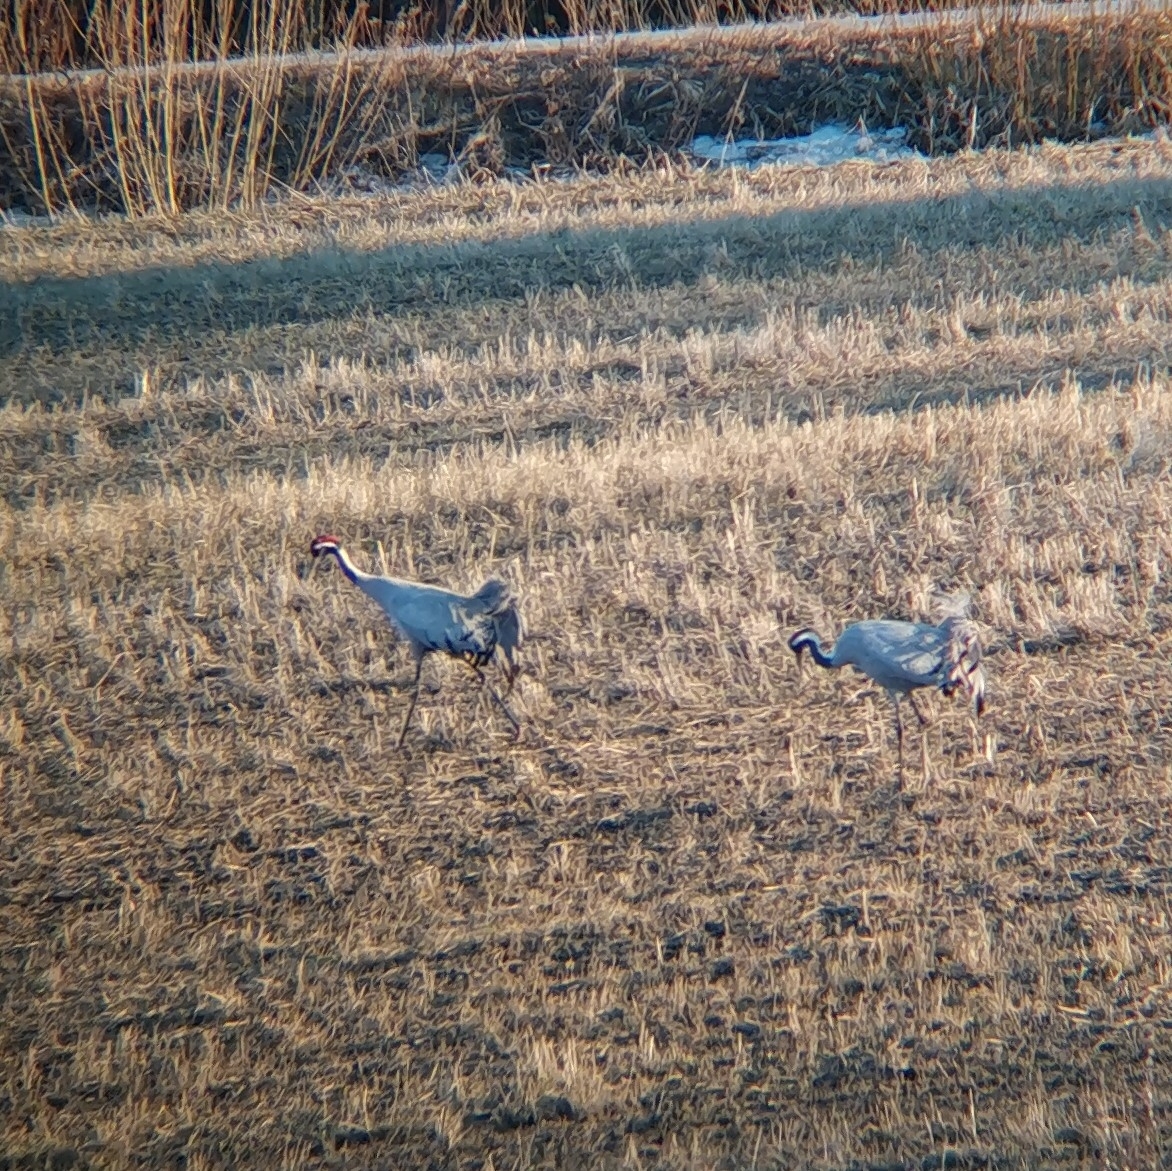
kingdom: Animalia
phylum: Chordata
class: Aves
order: Gruiformes
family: Gruidae
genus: Grus
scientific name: Grus grus
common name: Common crane
